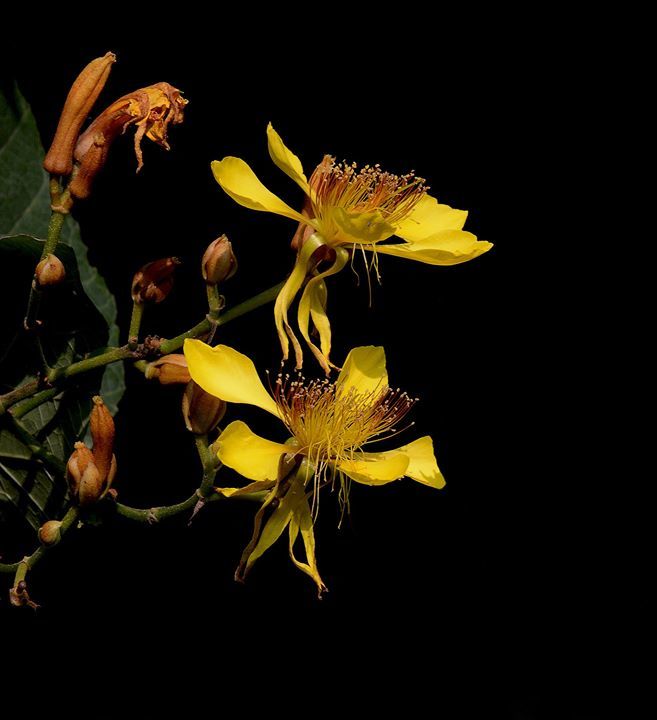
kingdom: Plantae
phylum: Tracheophyta
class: Magnoliopsida
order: Malvales
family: Malvaceae
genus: Erinocarpus
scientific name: Erinocarpus nimmonii
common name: Nimmo's erinocarpus
